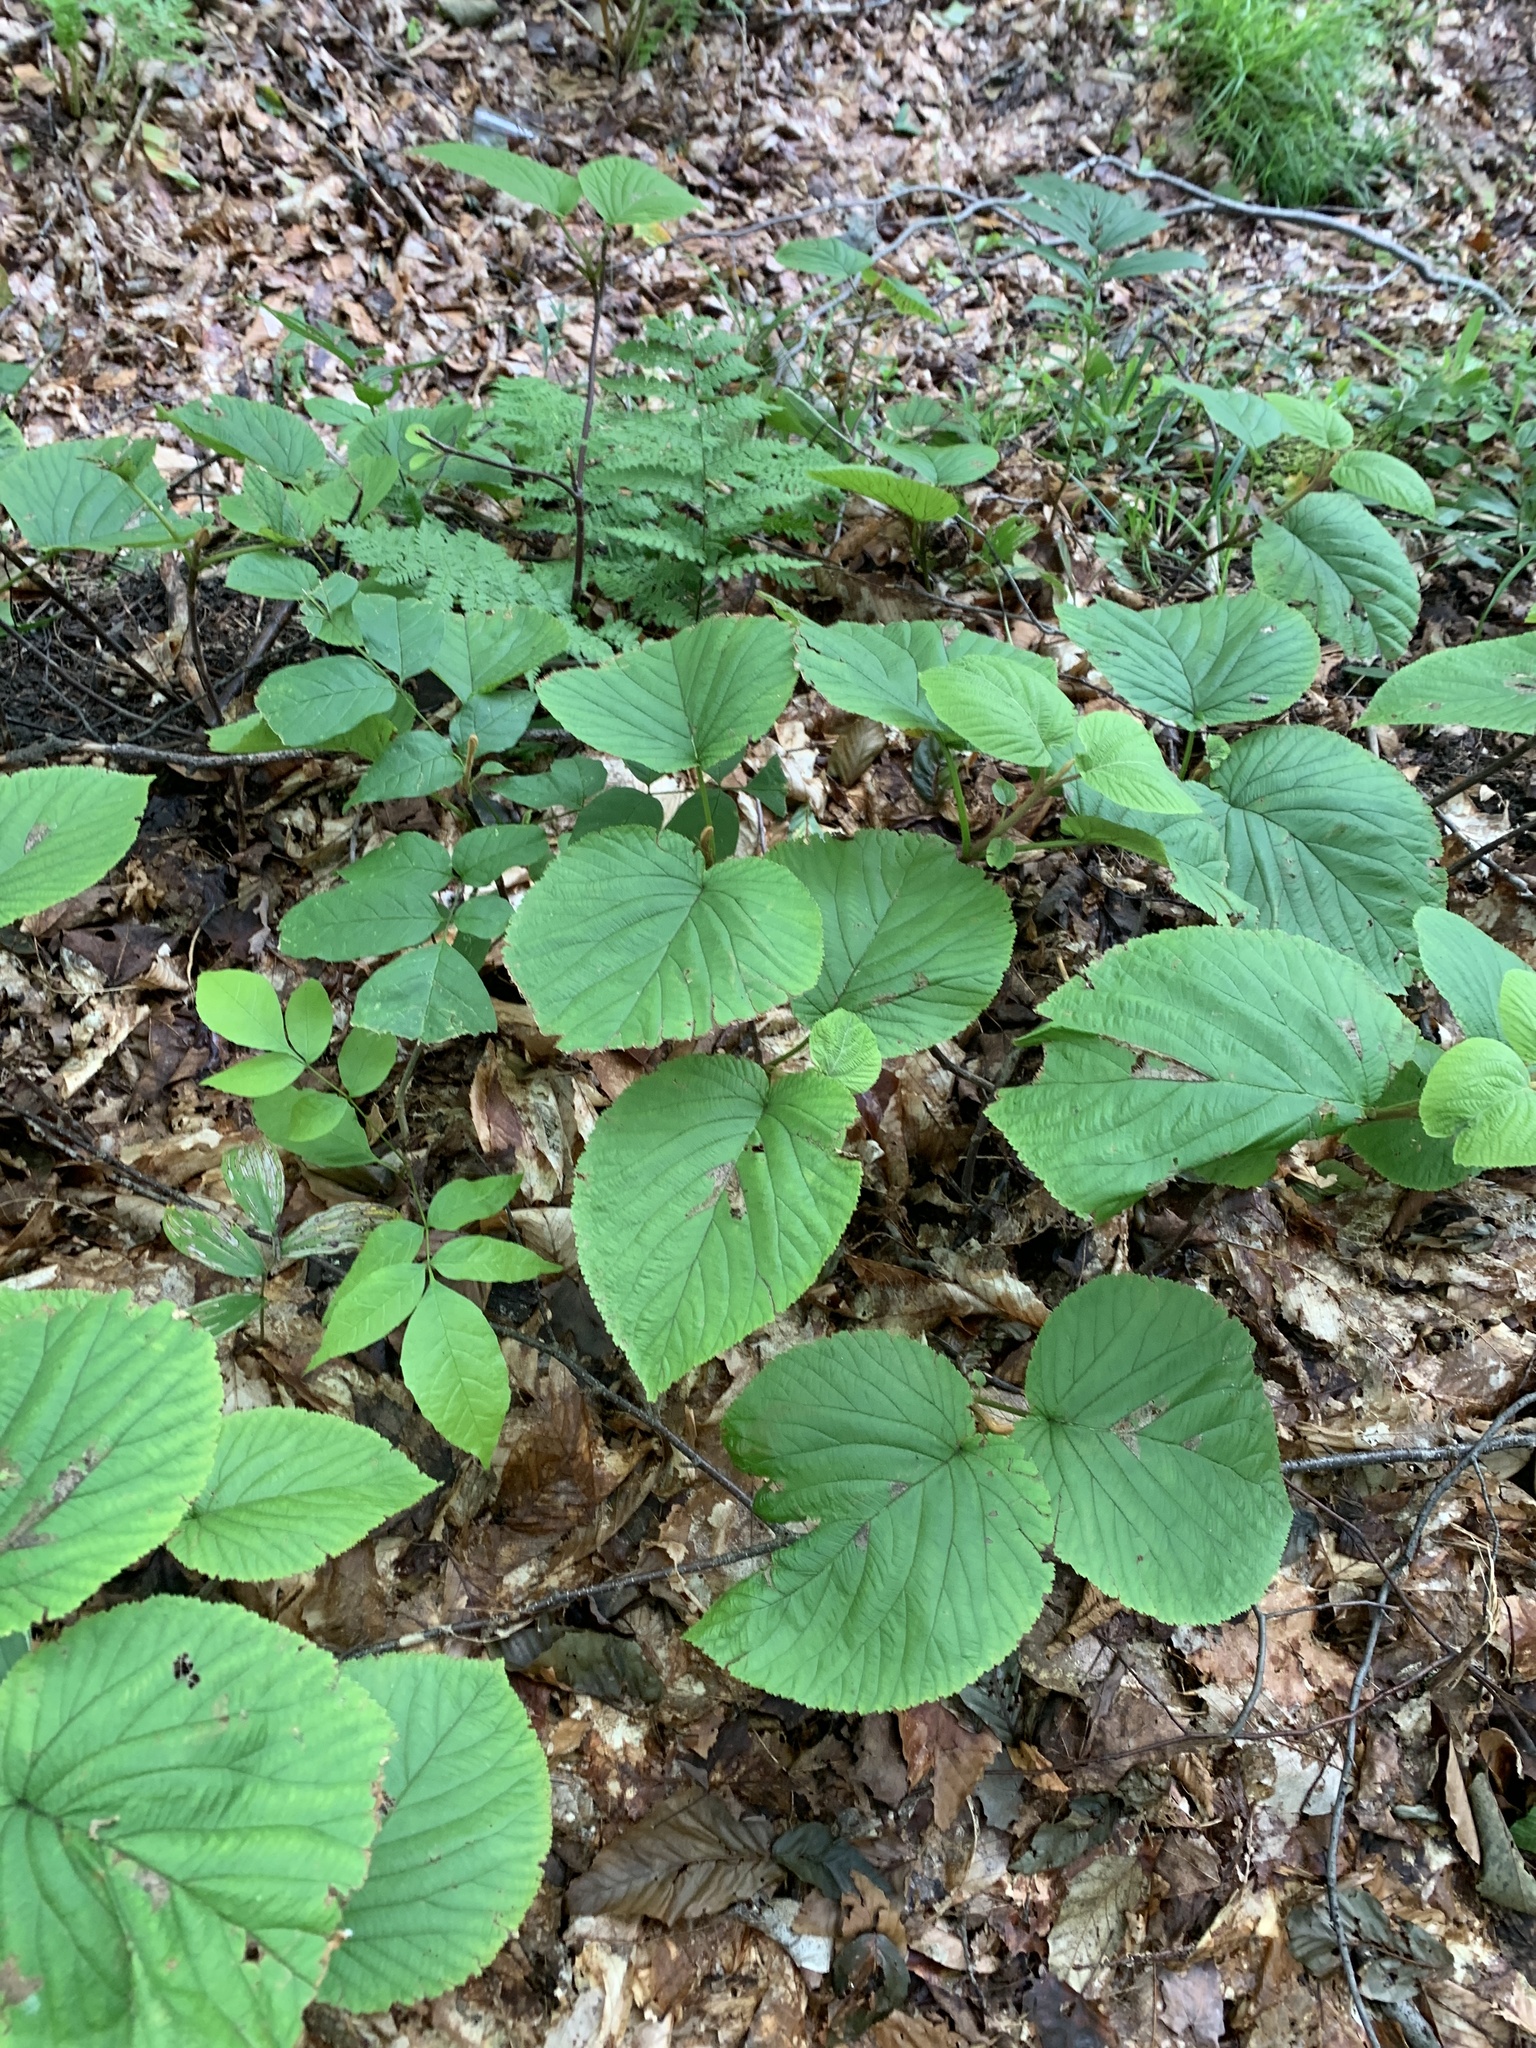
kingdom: Plantae
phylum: Tracheophyta
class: Magnoliopsida
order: Dipsacales
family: Viburnaceae
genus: Viburnum
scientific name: Viburnum lantanoides
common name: Hobblebush
